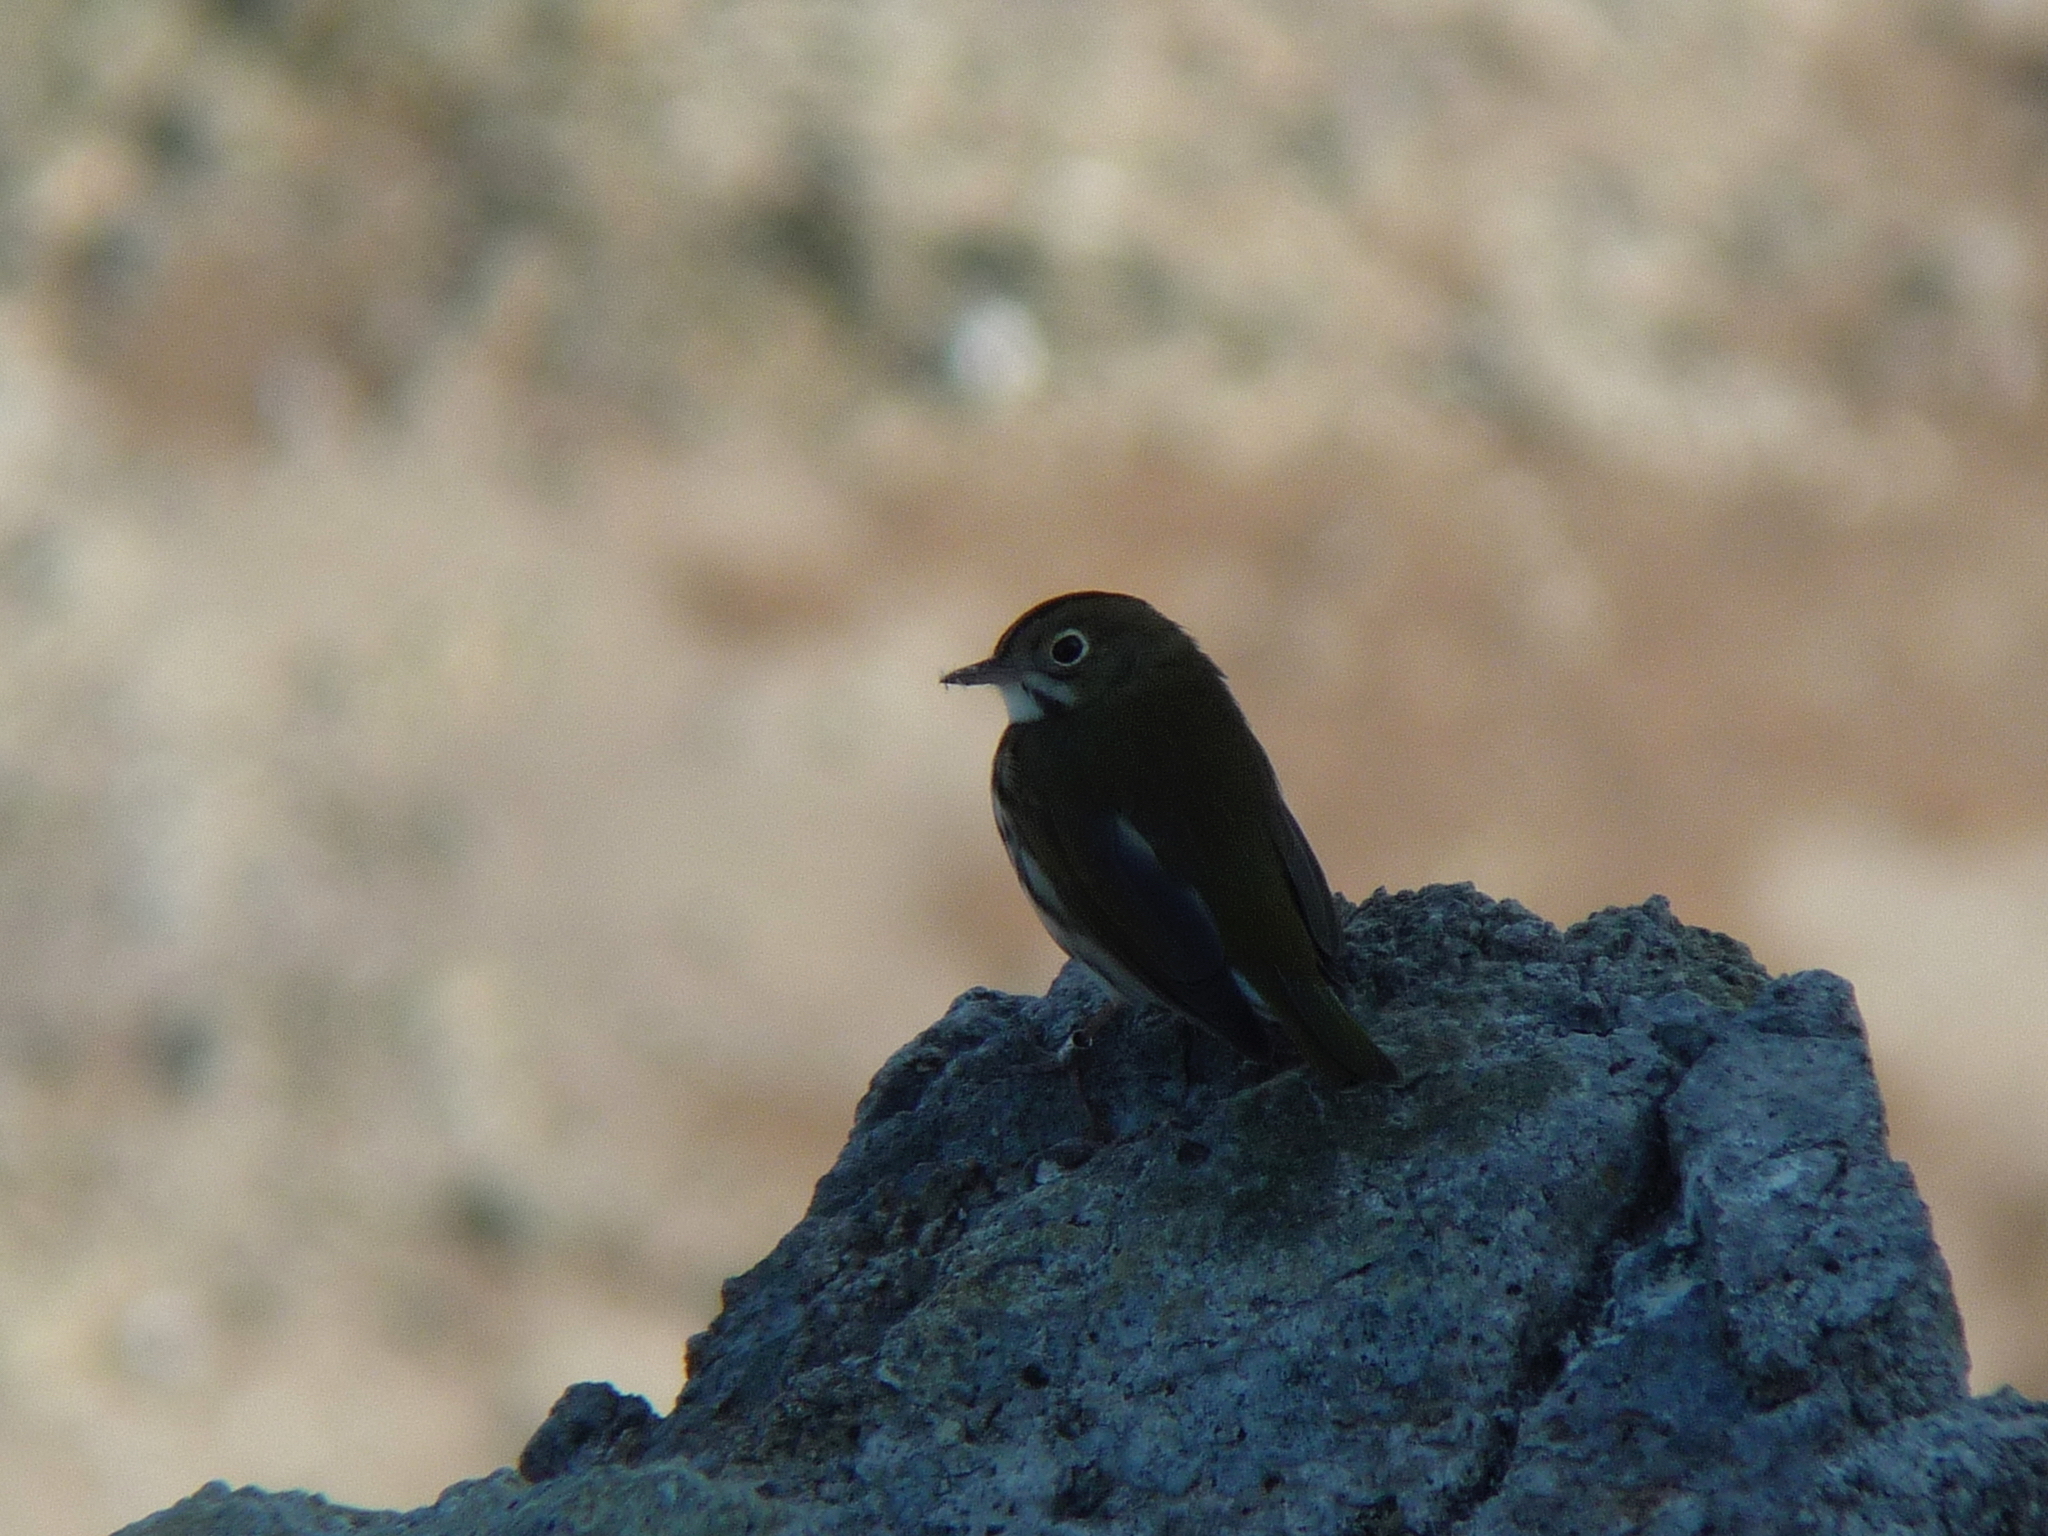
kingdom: Animalia
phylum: Chordata
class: Aves
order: Passeriformes
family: Parulidae
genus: Seiurus
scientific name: Seiurus aurocapilla
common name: Ovenbird
